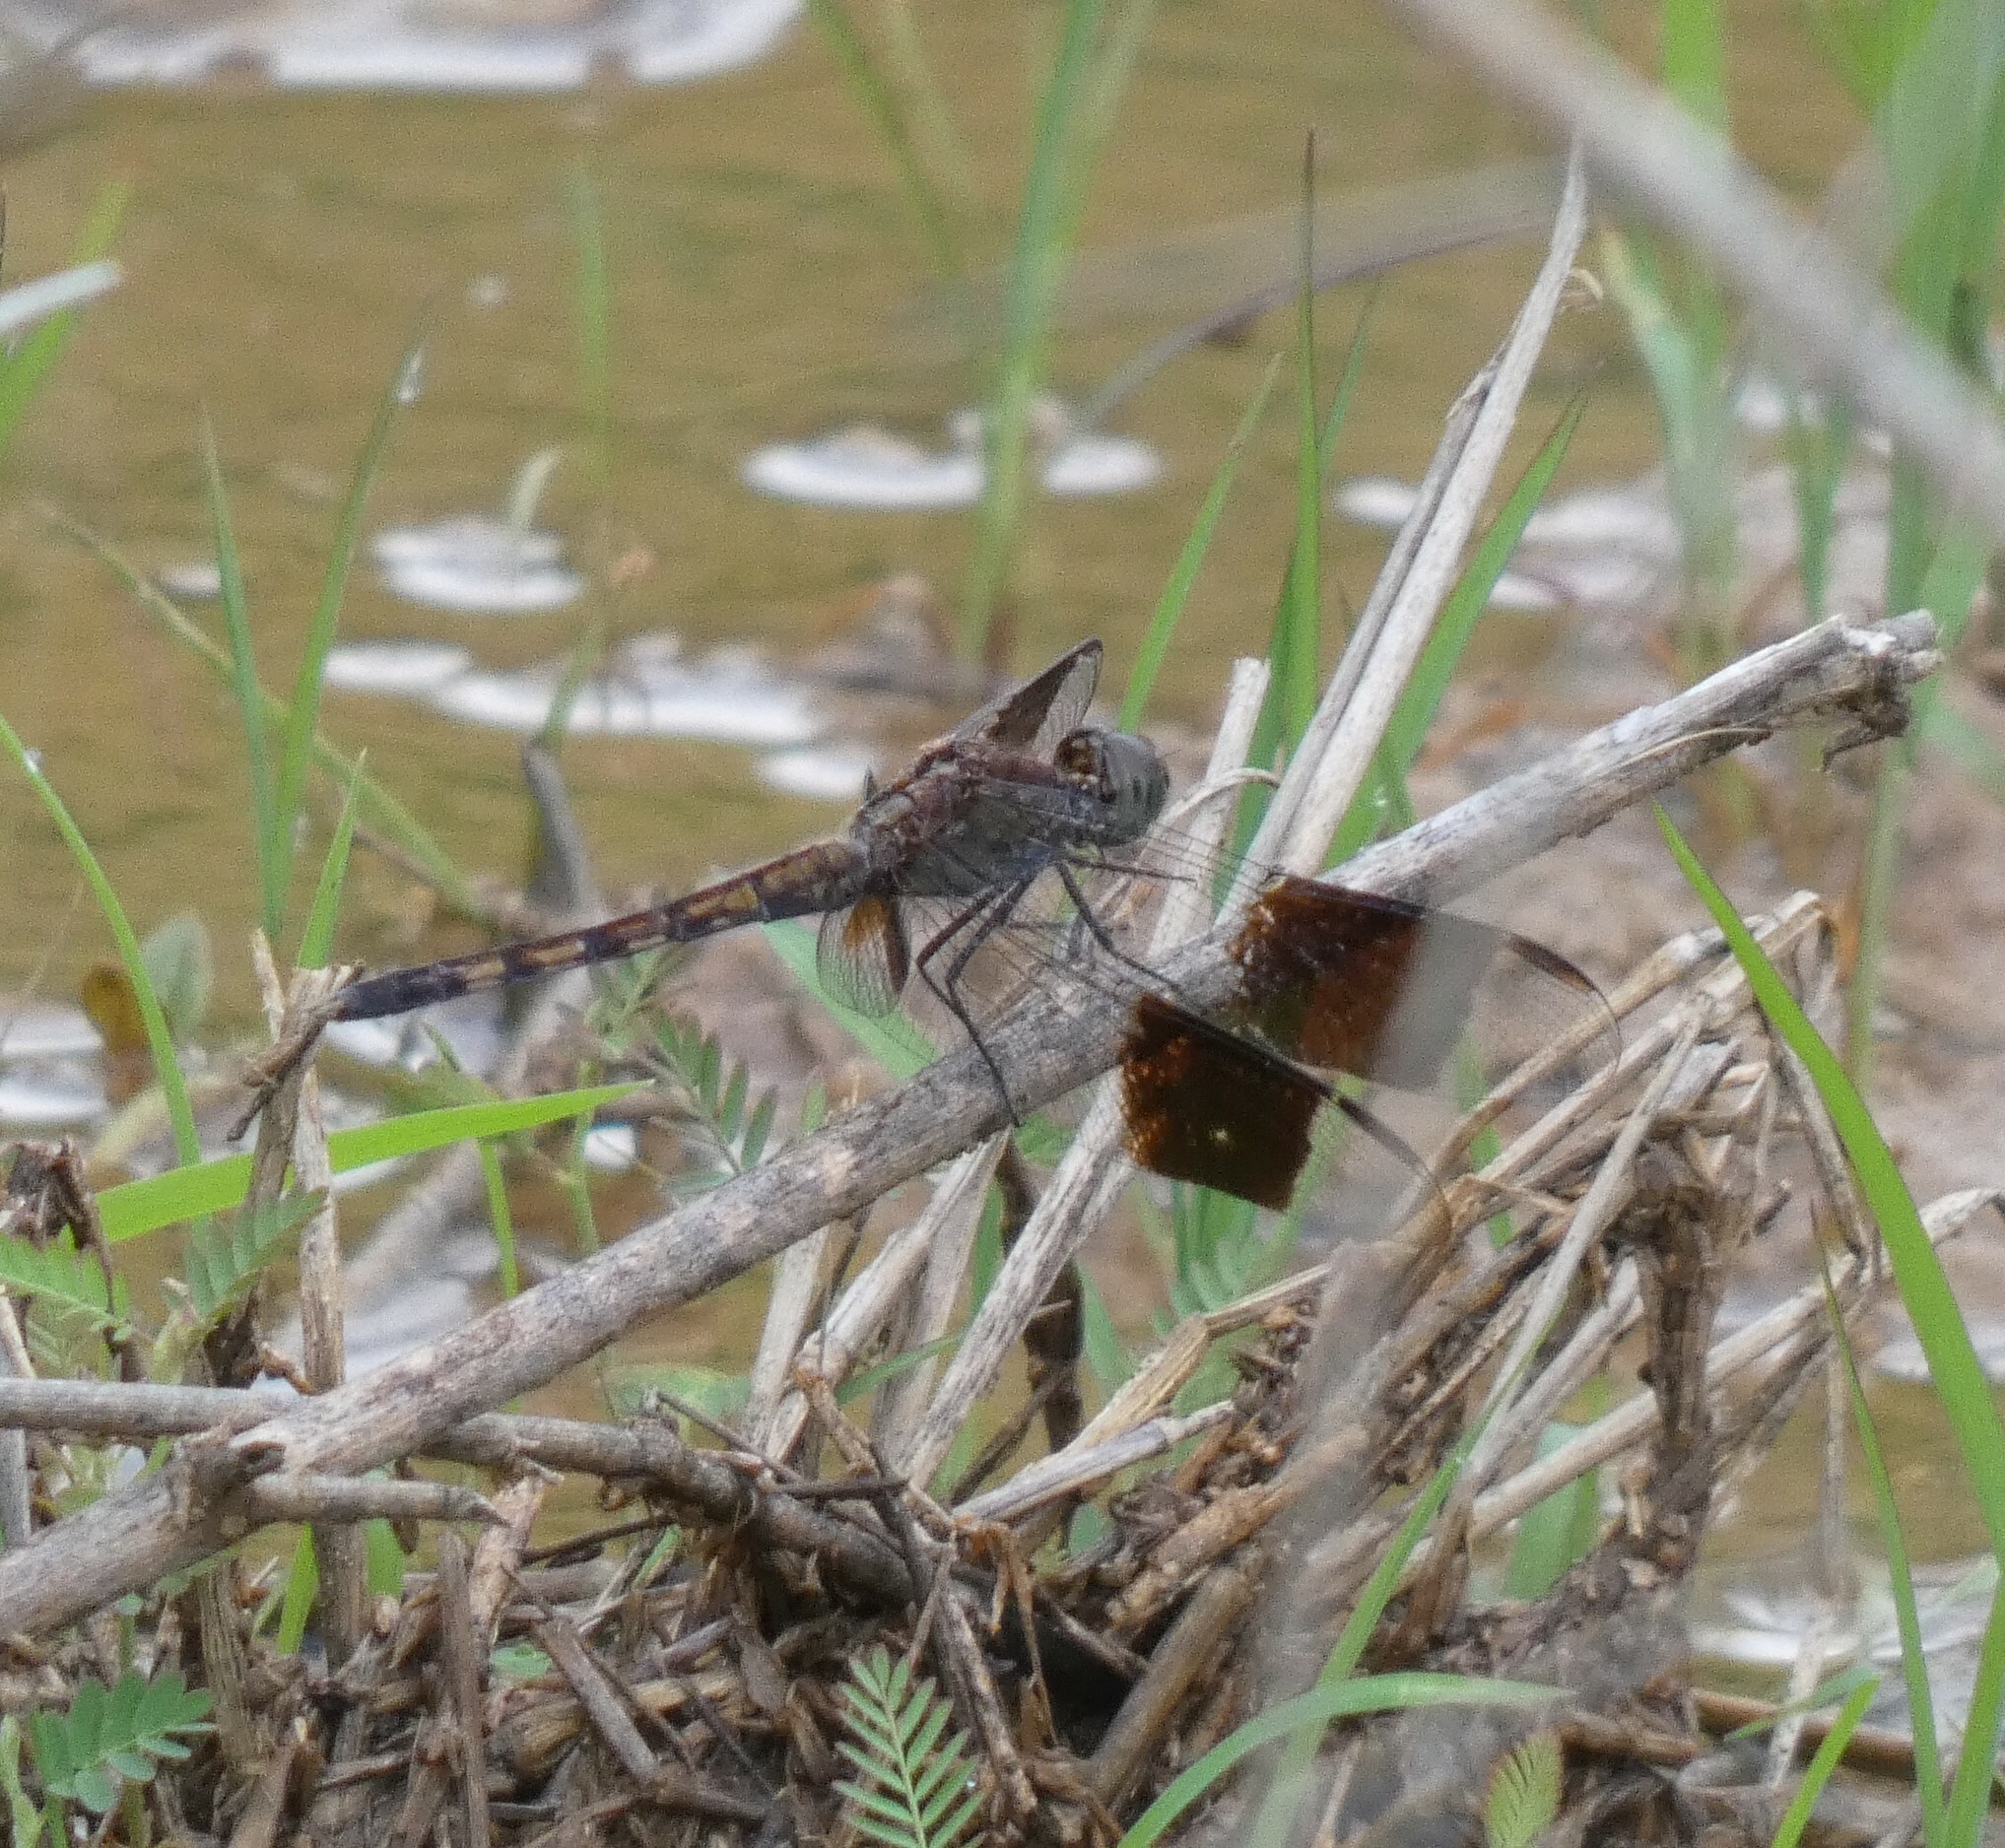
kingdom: Animalia
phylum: Arthropoda
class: Insecta
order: Odonata
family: Libellulidae
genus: Erythrodiplax
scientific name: Erythrodiplax umbrata
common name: Band-winged dragonlet
